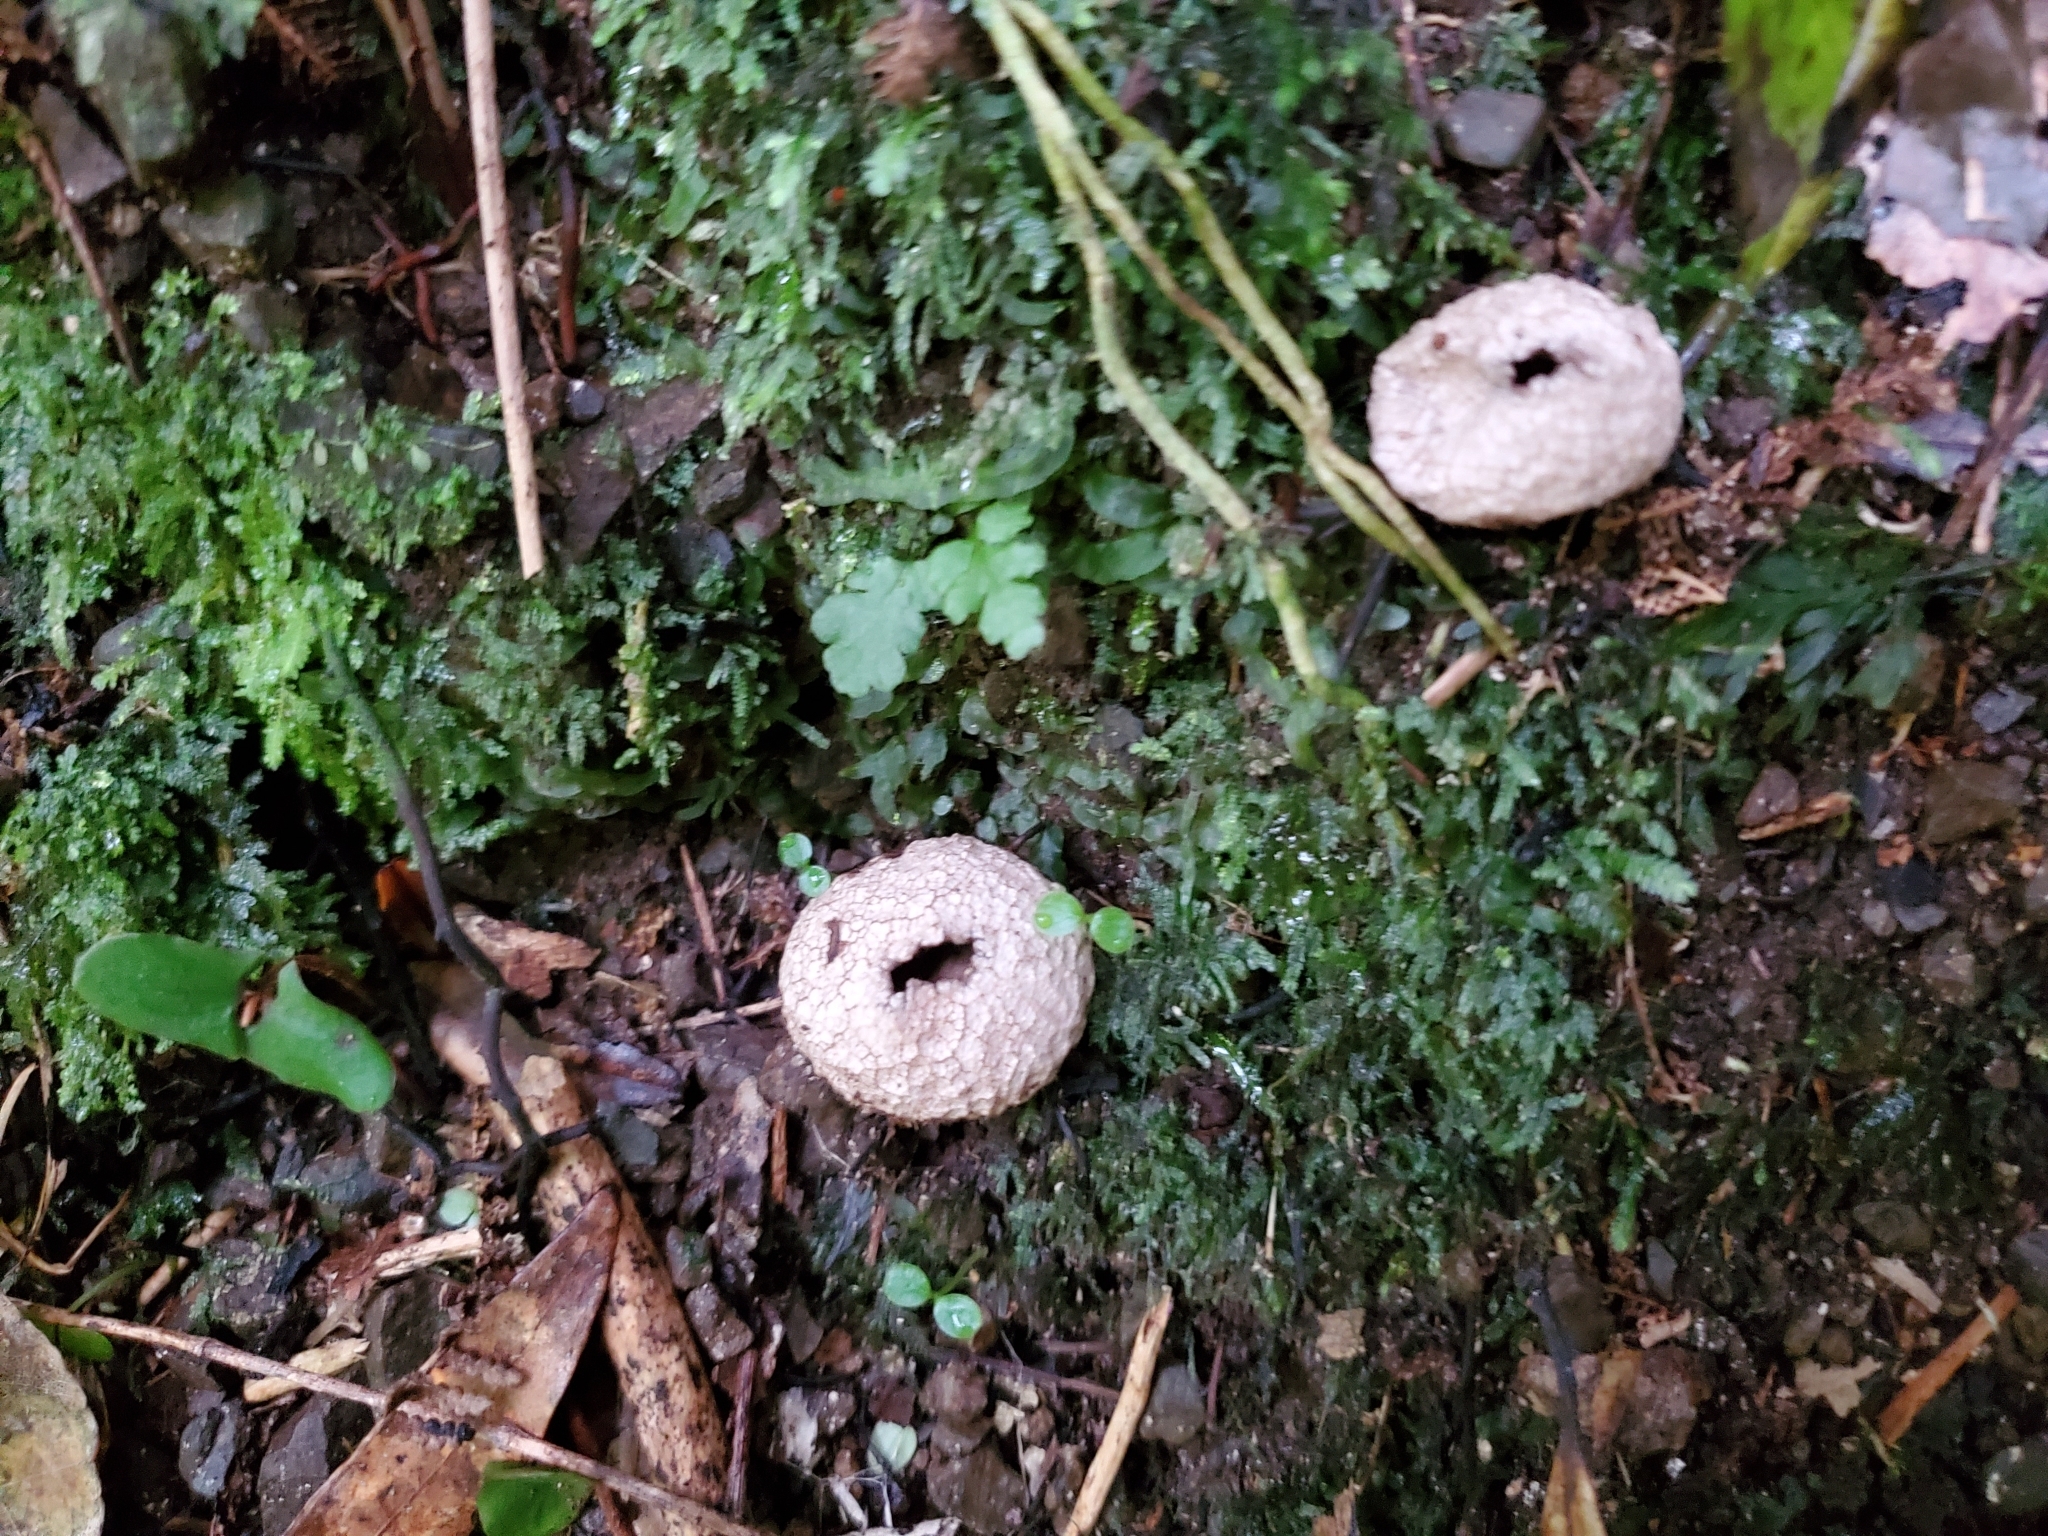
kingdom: Fungi
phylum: Basidiomycota
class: Agaricomycetes
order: Agaricales
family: Lycoperdaceae
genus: Lycoperdon
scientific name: Lycoperdon compactum
